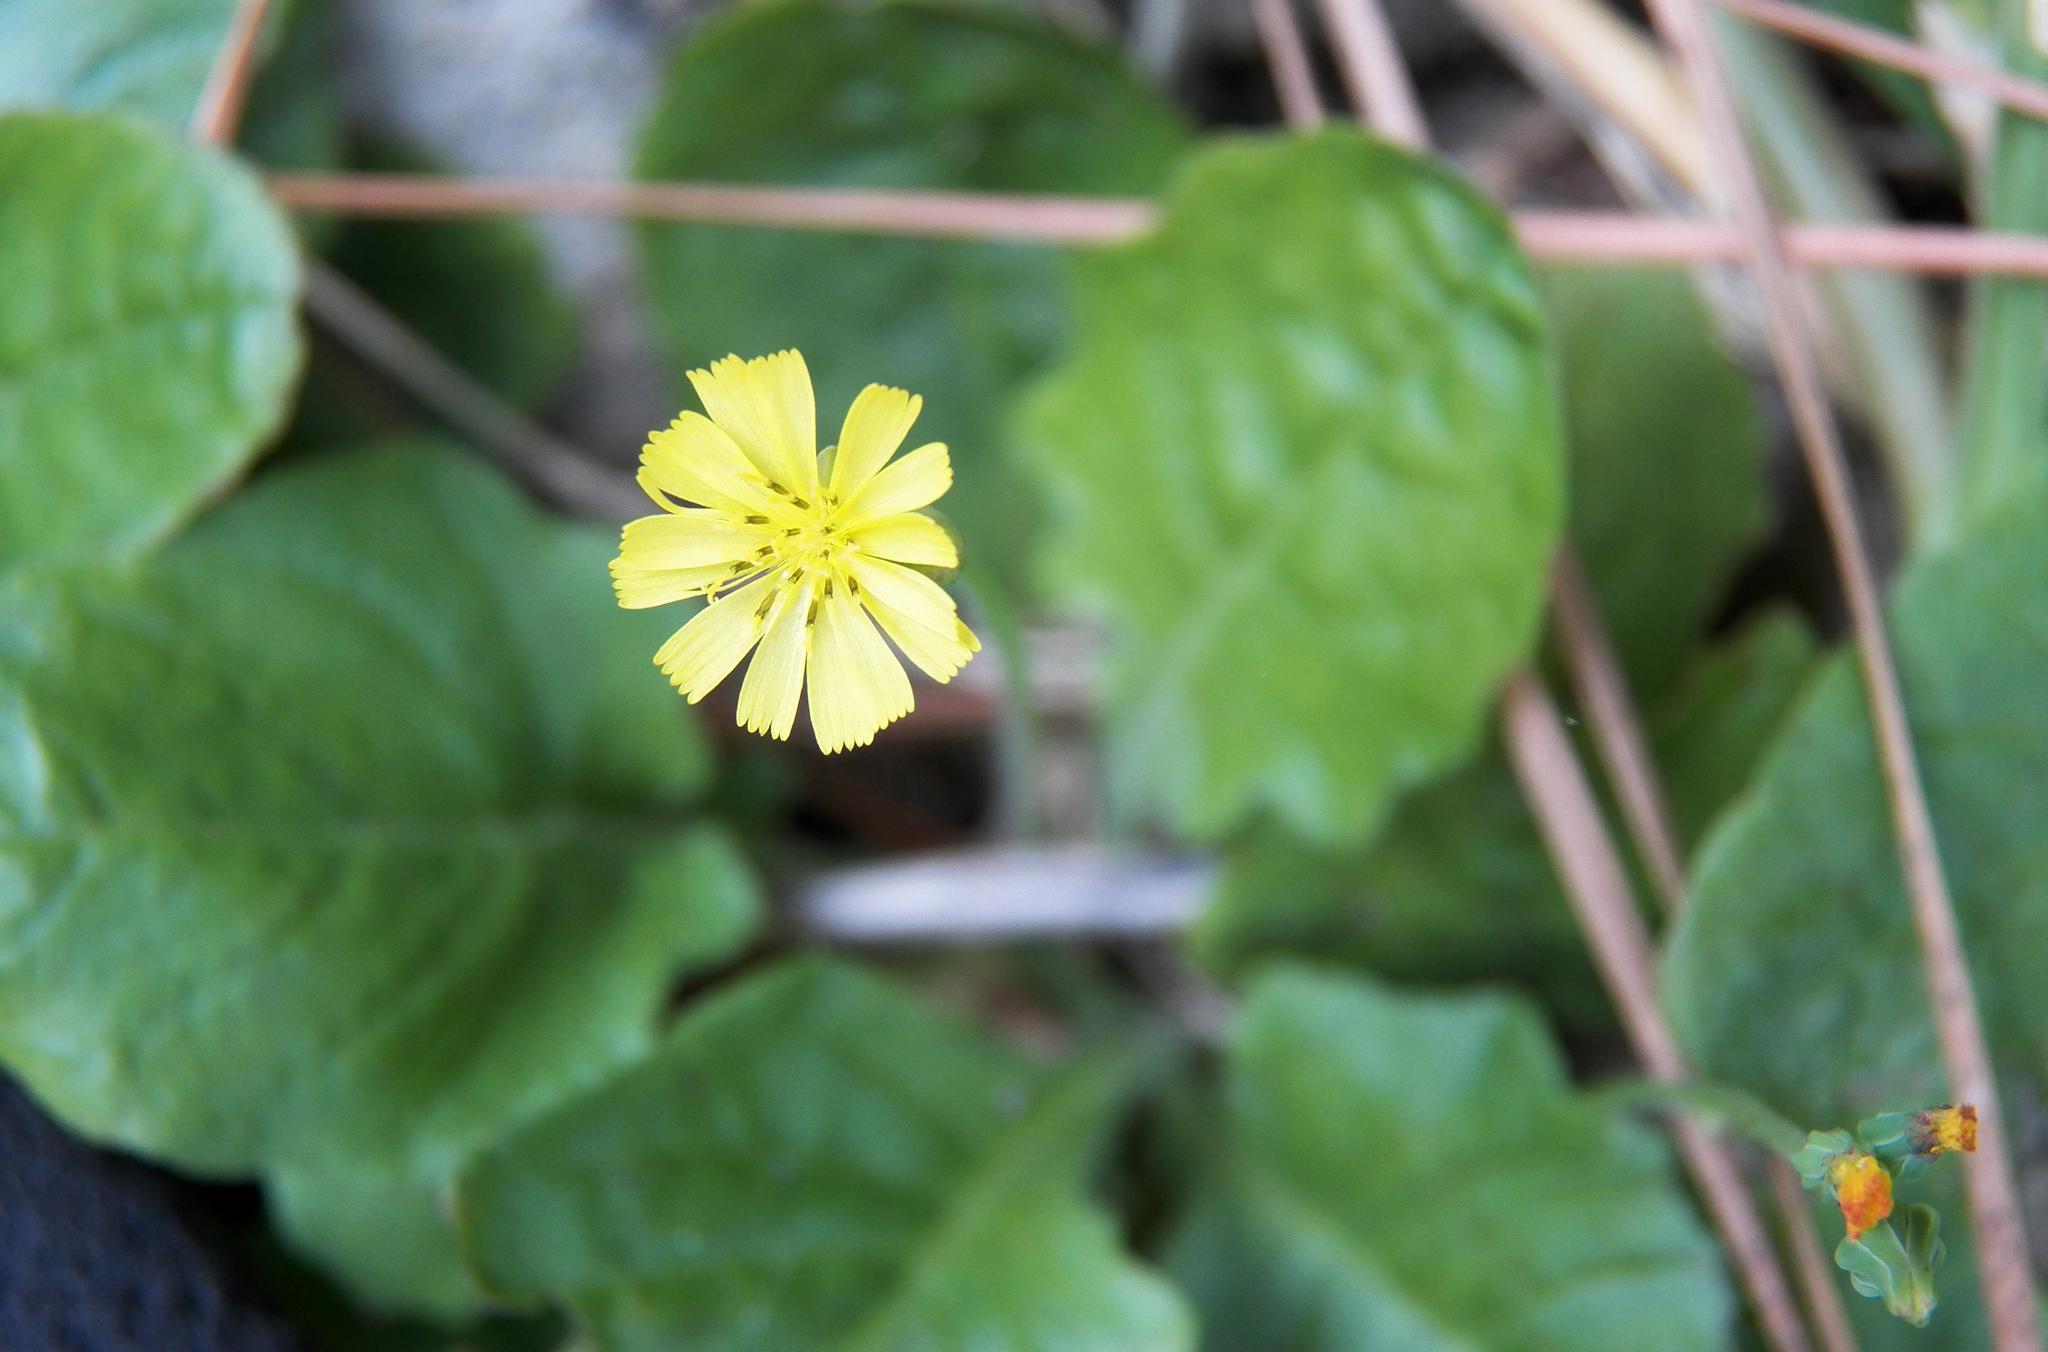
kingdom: Plantae
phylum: Tracheophyta
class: Magnoliopsida
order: Asterales
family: Asteraceae
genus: Youngia
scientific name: Youngia japonica
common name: Oriental false hawksbeard
